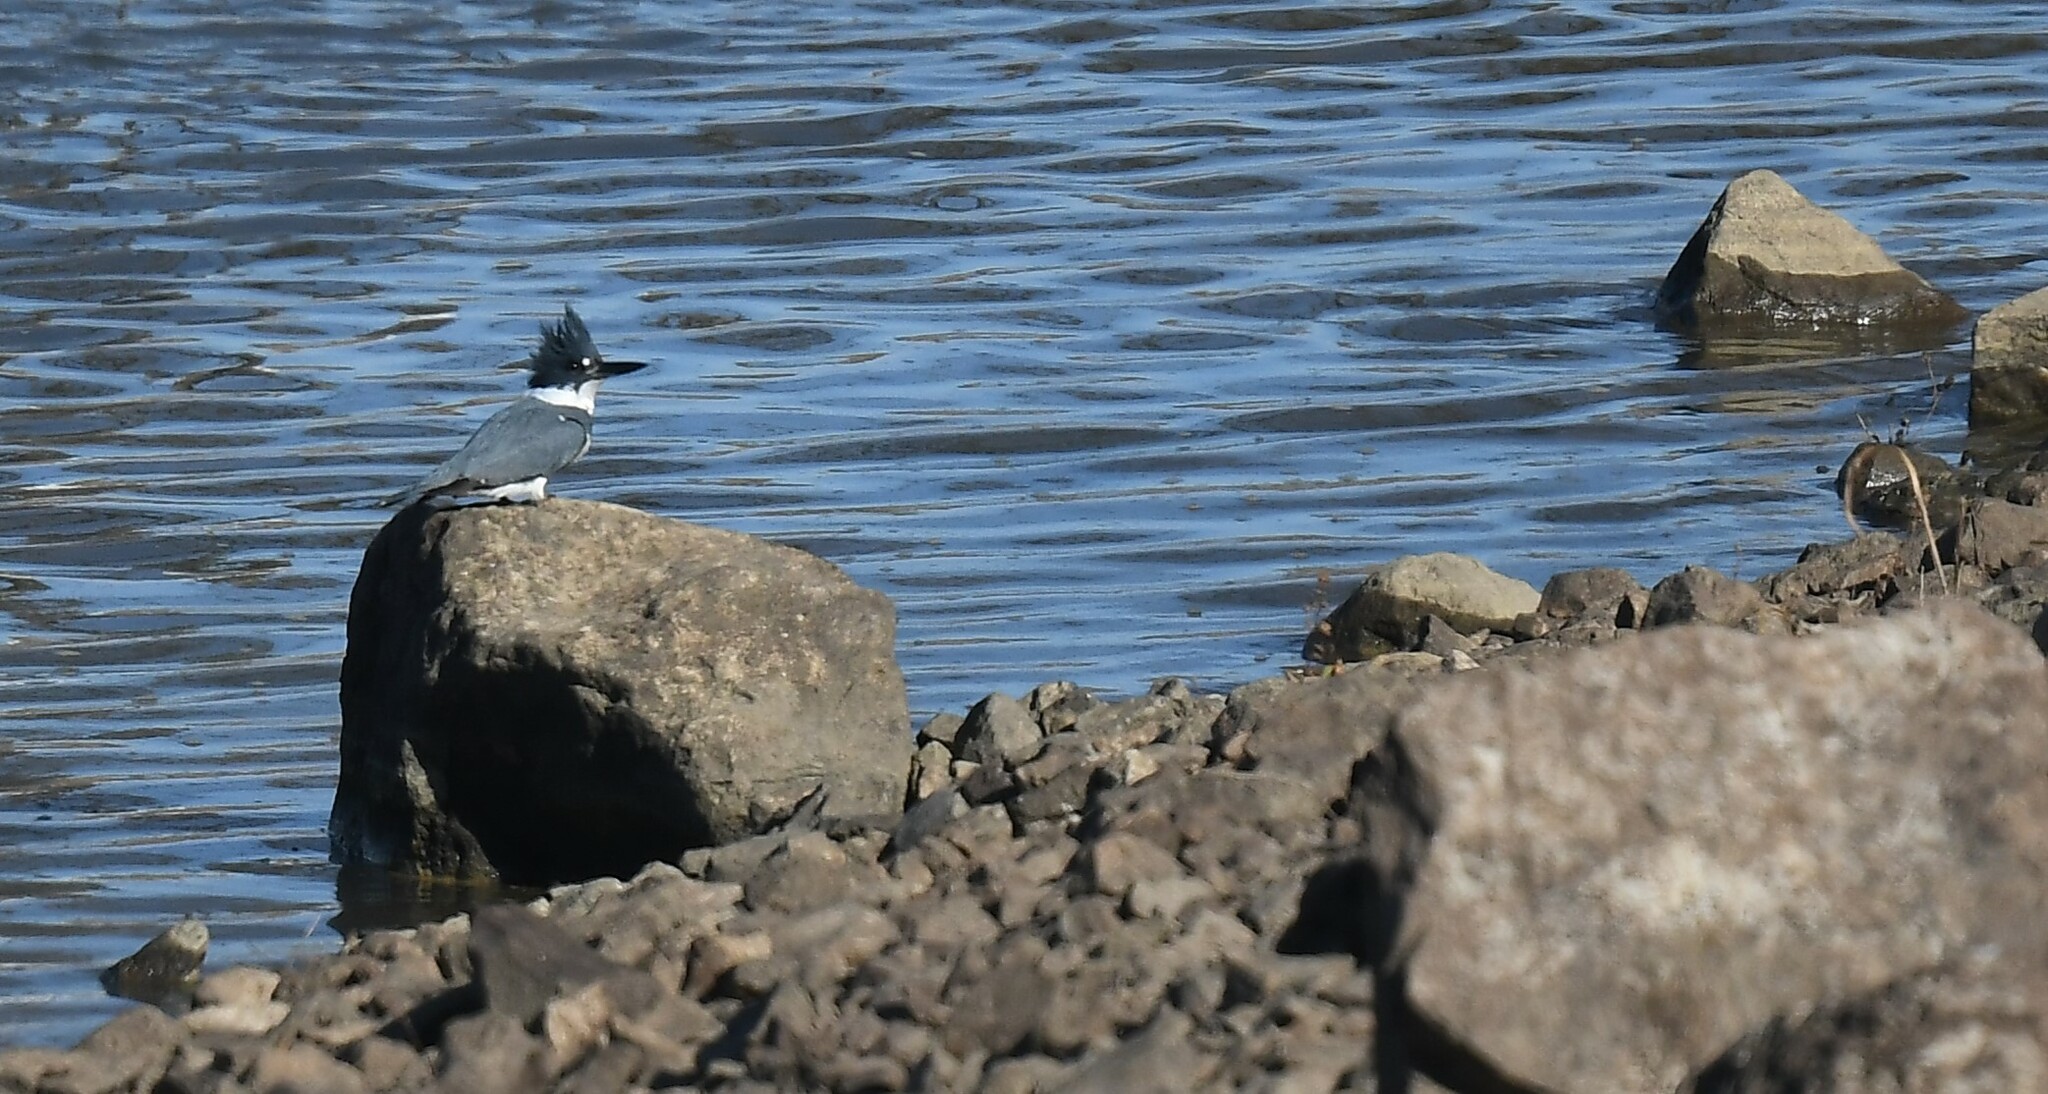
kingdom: Animalia
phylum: Chordata
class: Aves
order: Coraciiformes
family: Alcedinidae
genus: Megaceryle
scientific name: Megaceryle alcyon
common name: Belted kingfisher
